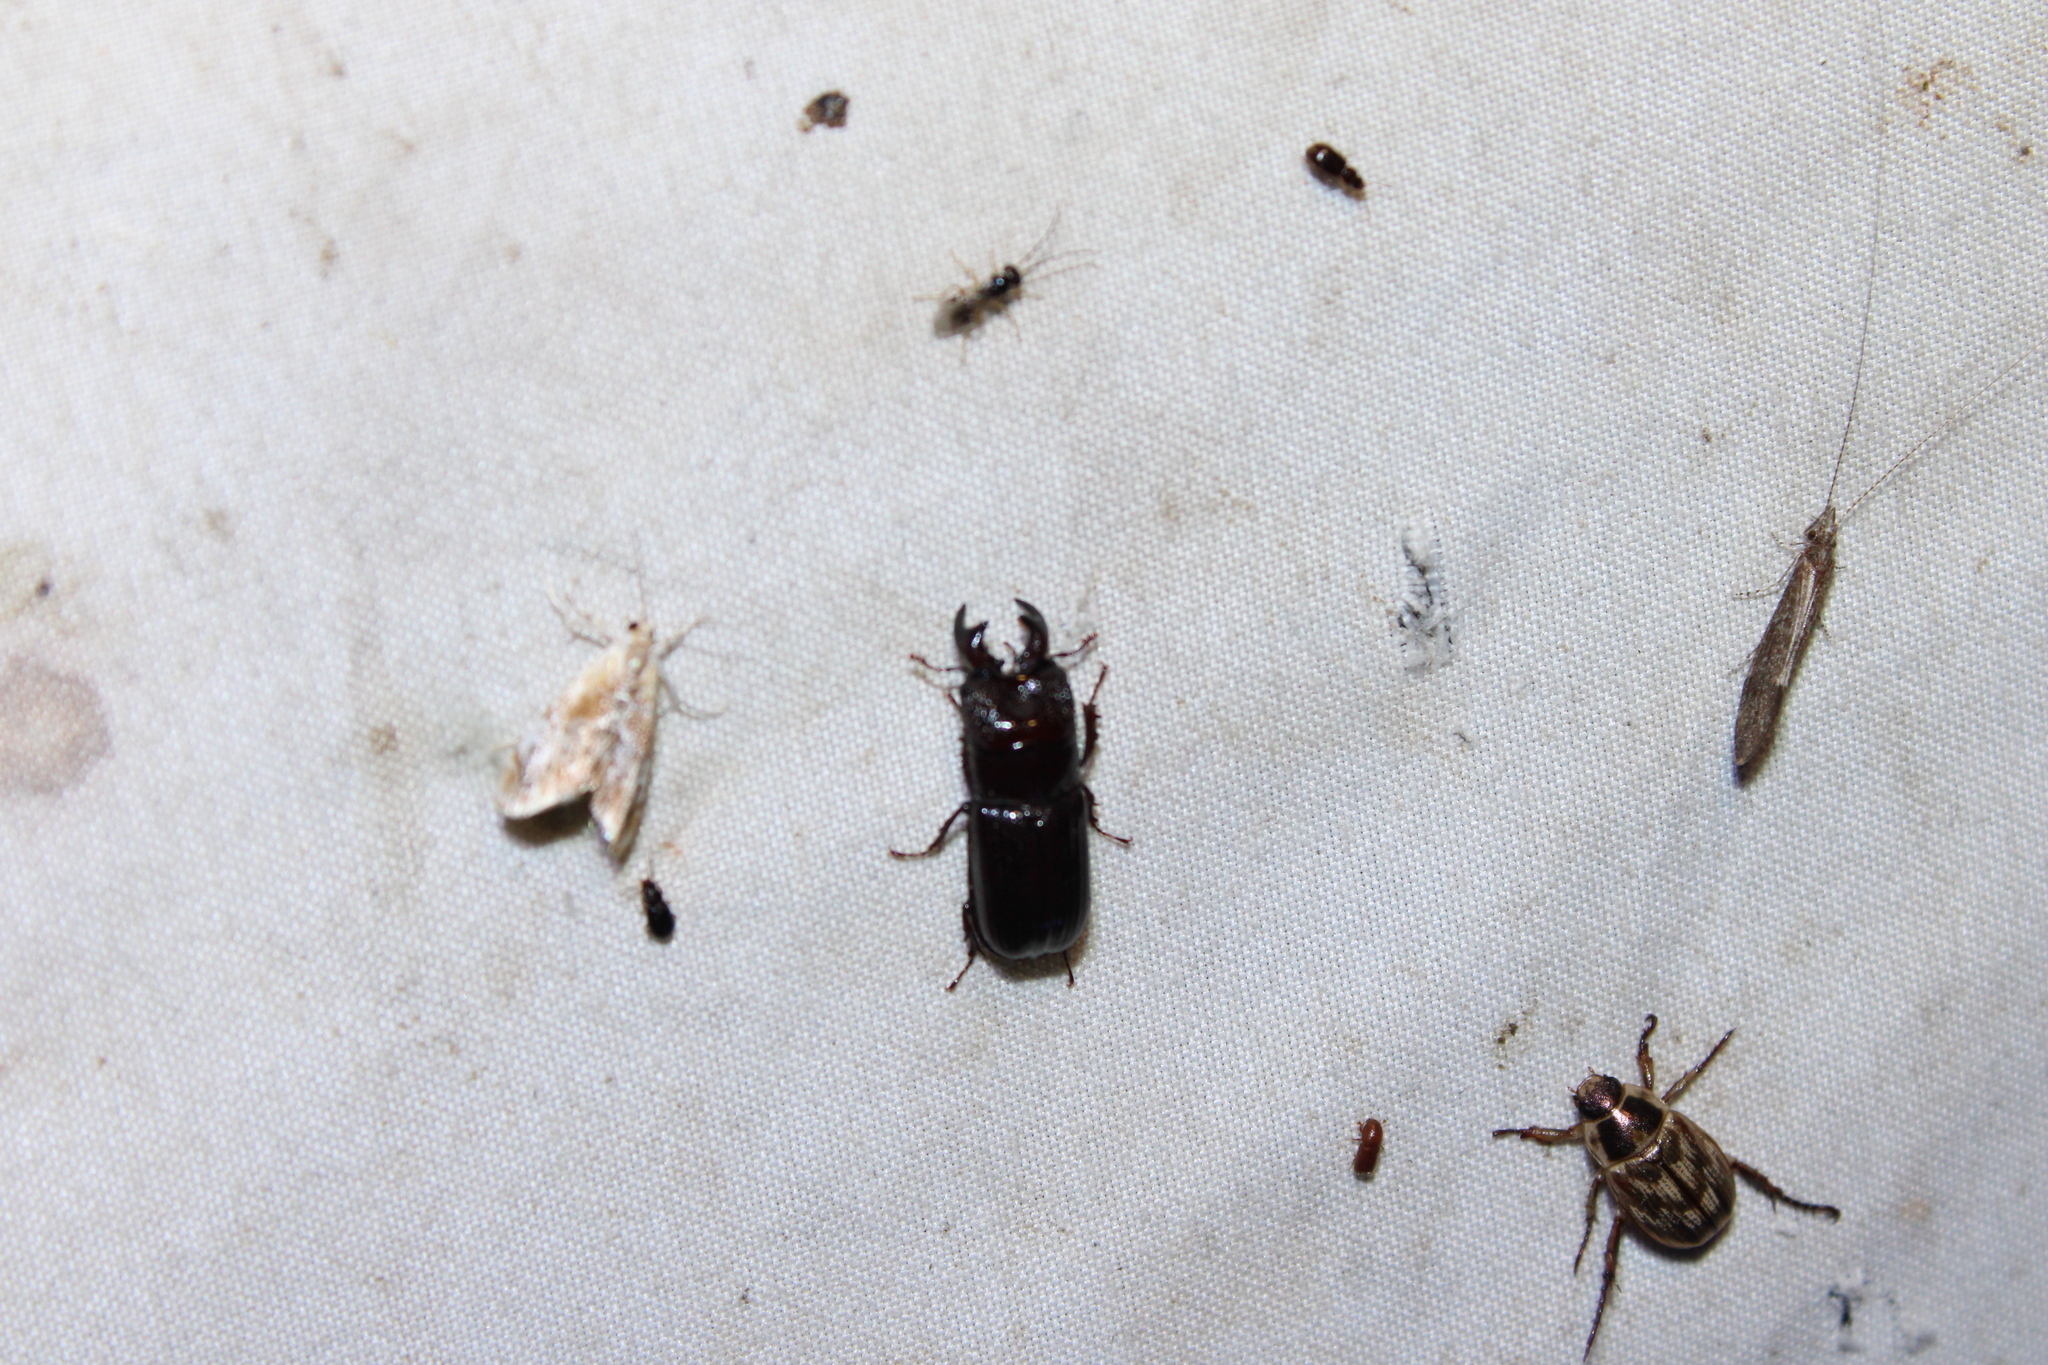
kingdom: Animalia
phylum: Arthropoda
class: Insecta
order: Coleoptera
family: Lucanidae
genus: Ceruchus
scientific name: Ceruchus piceus
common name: Red-rot decay stag beetle
